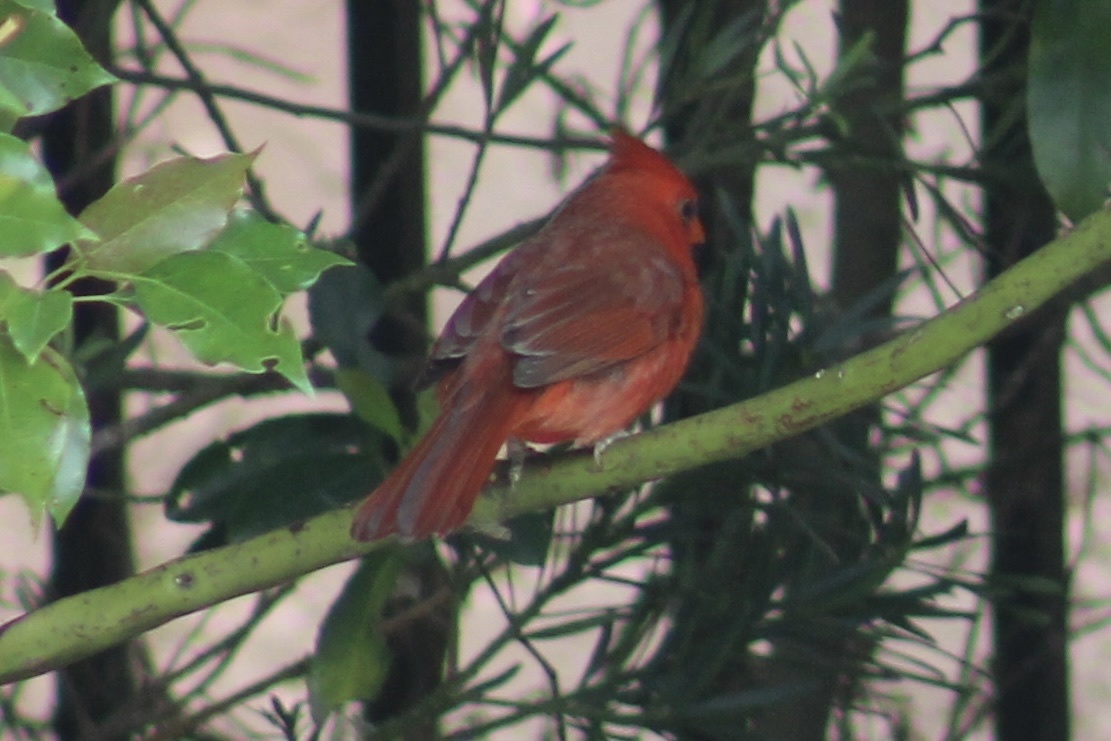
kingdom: Animalia
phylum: Chordata
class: Aves
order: Passeriformes
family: Cardinalidae
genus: Cardinalis
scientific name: Cardinalis cardinalis
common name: Northern cardinal
